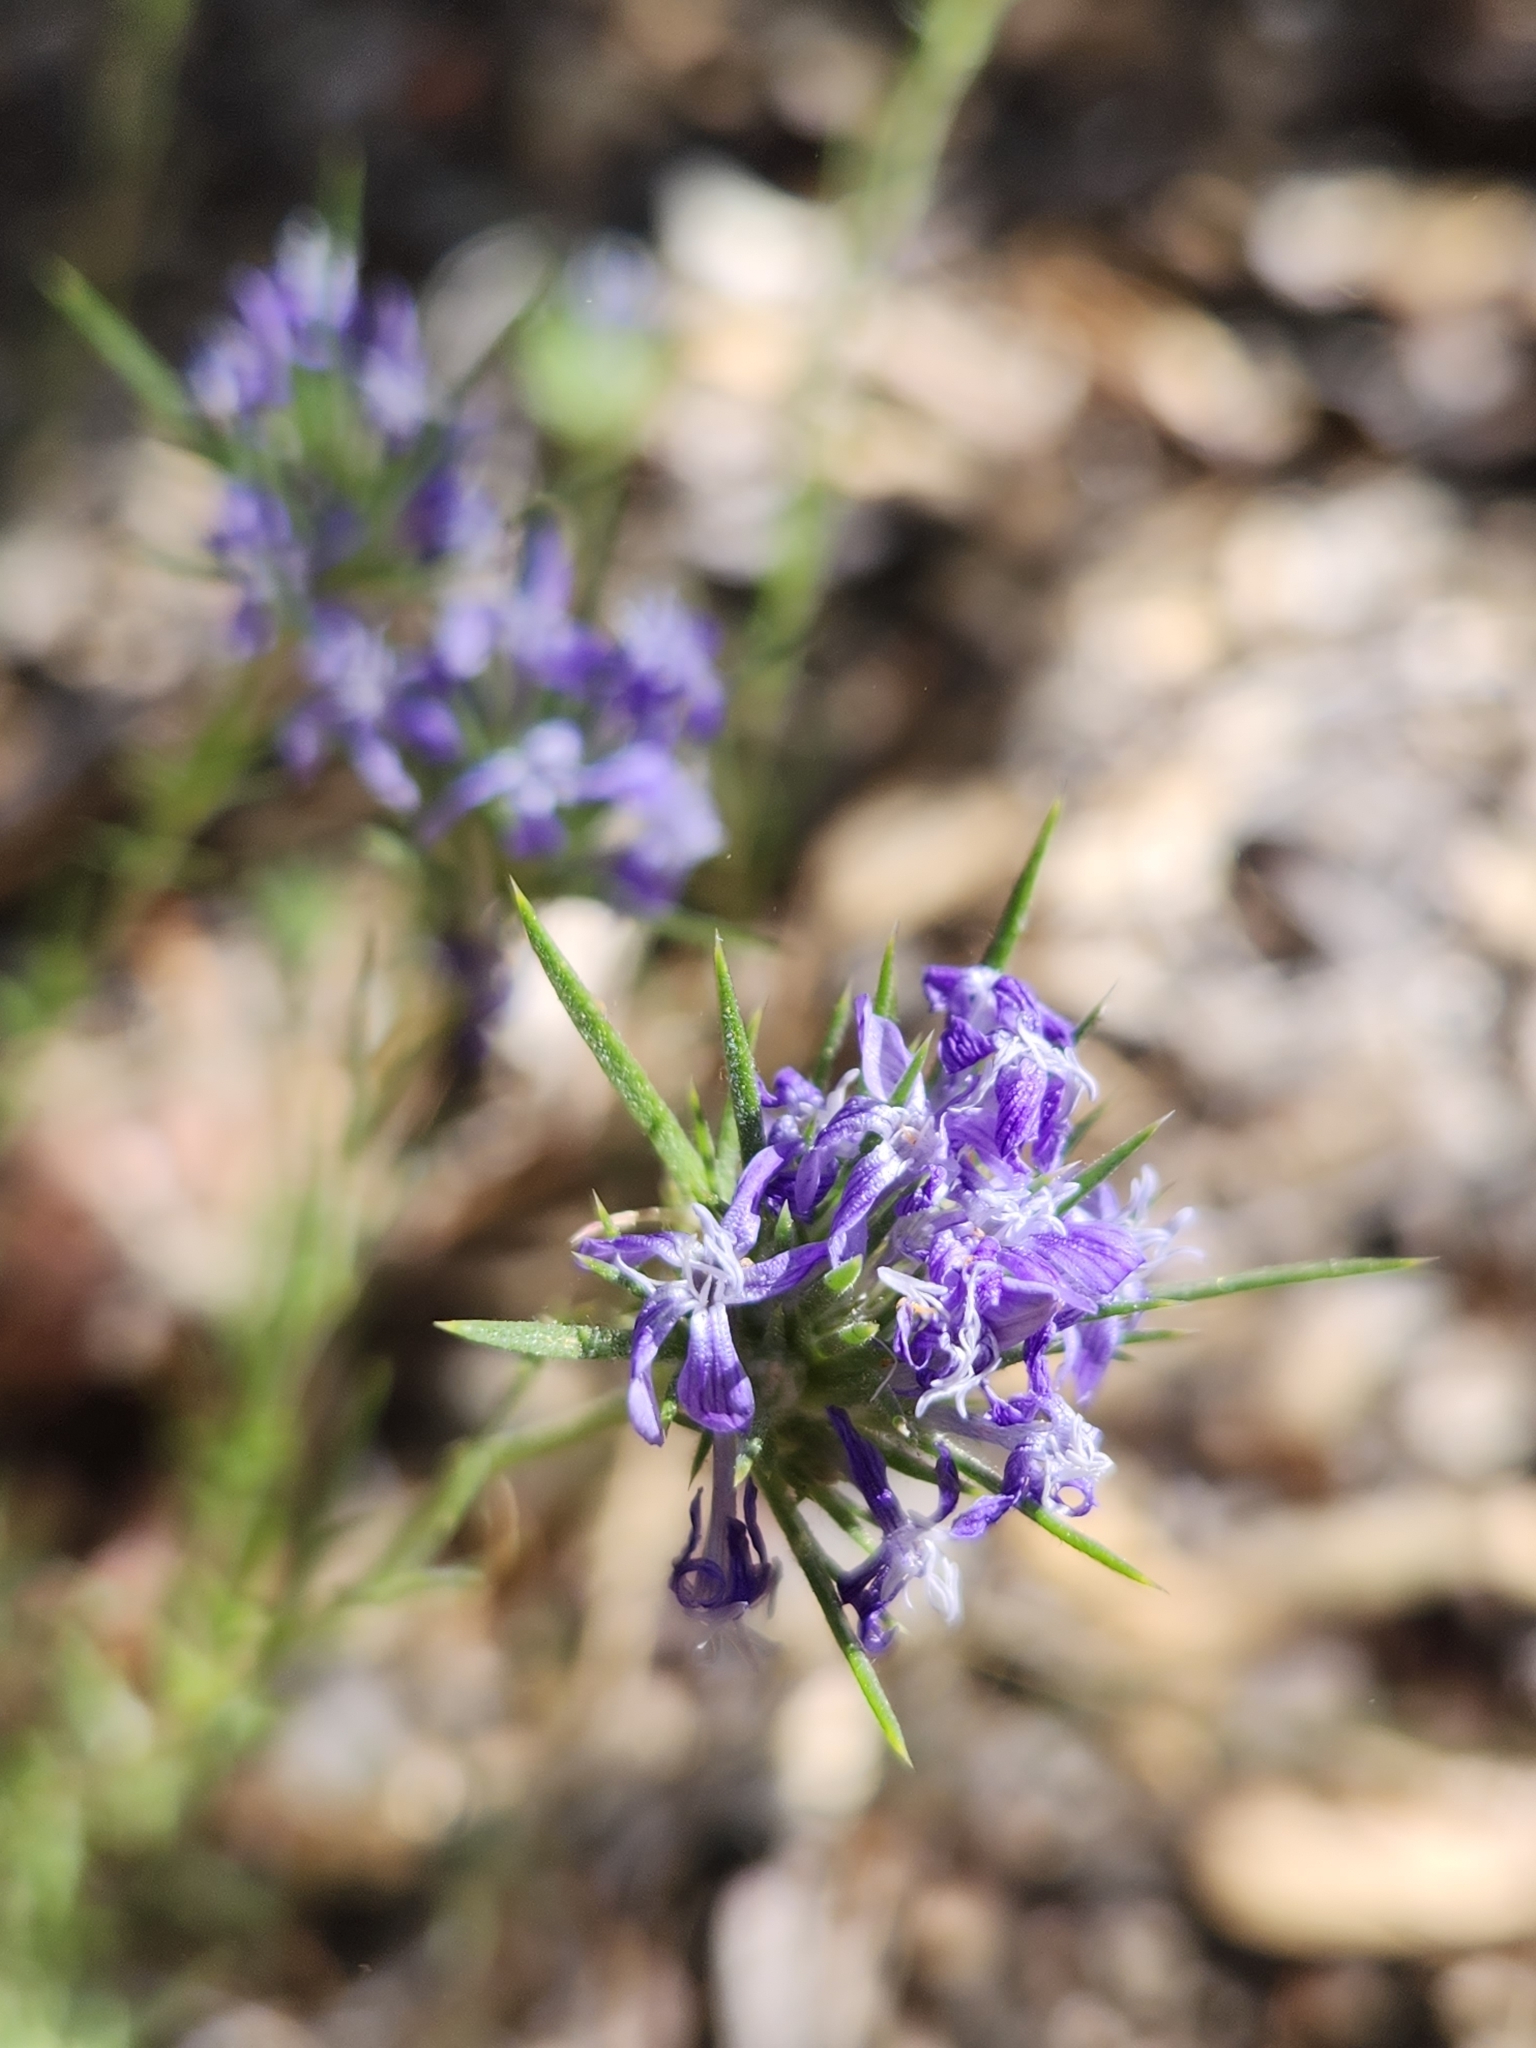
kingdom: Plantae
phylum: Tracheophyta
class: Magnoliopsida
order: Ericales
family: Polemoniaceae
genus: Eriastrum
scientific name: Eriastrum densifolium
